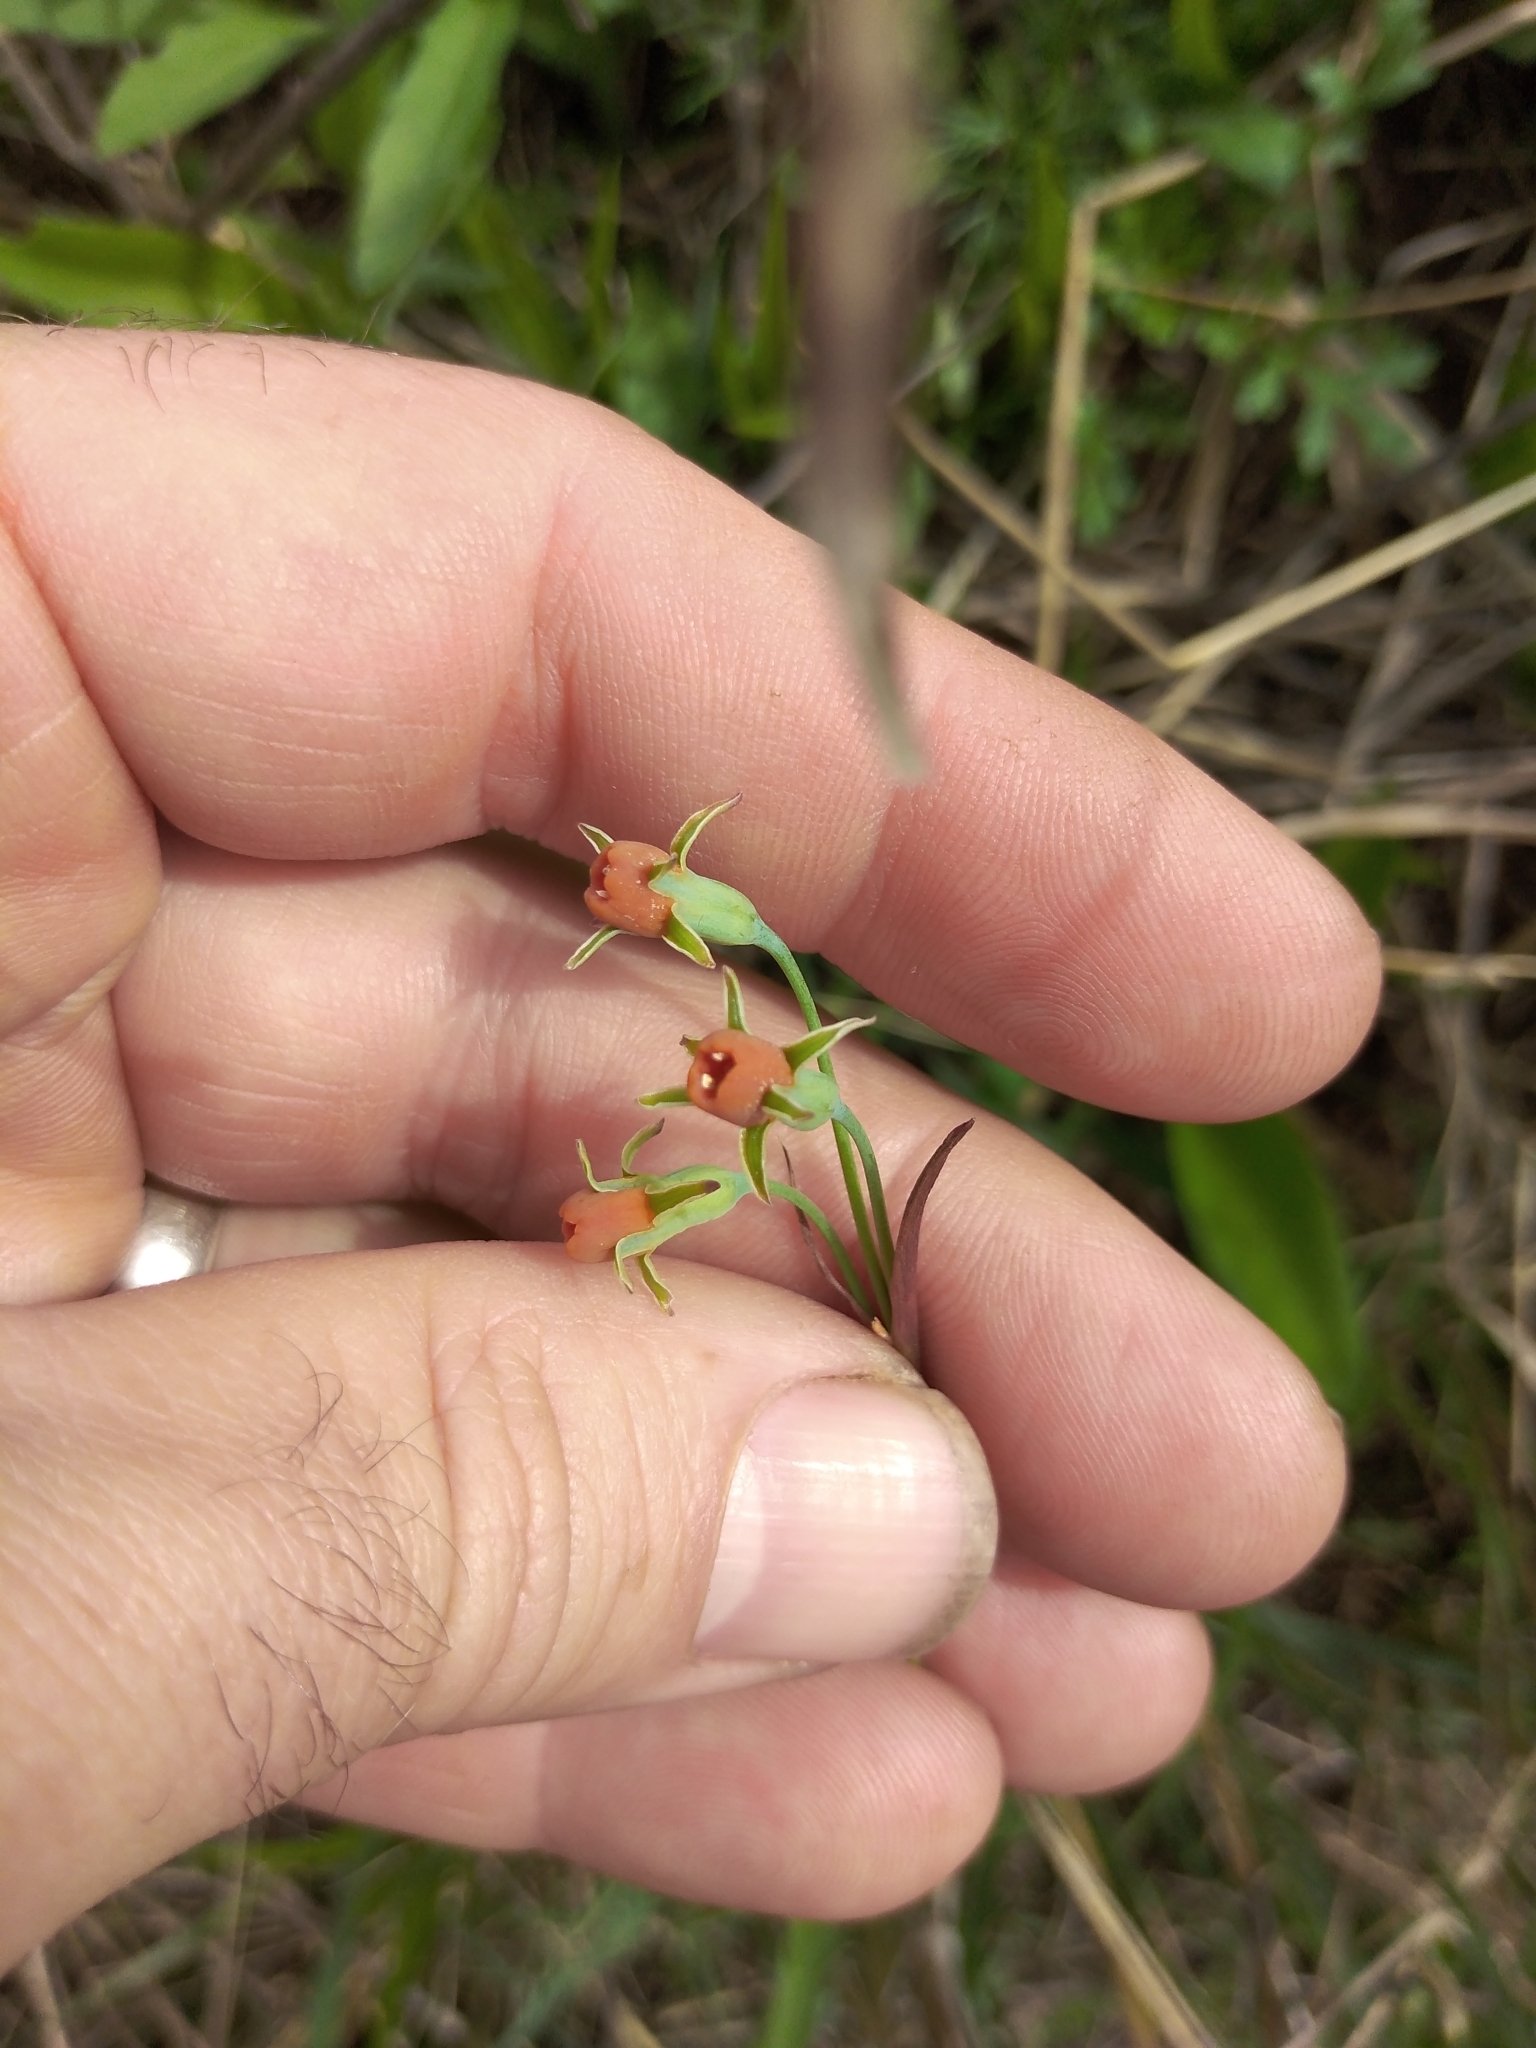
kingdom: Plantae
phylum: Tracheophyta
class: Liliopsida
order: Asparagales
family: Amaryllidaceae
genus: Tulbaghia
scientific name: Tulbaghia acutiloba
